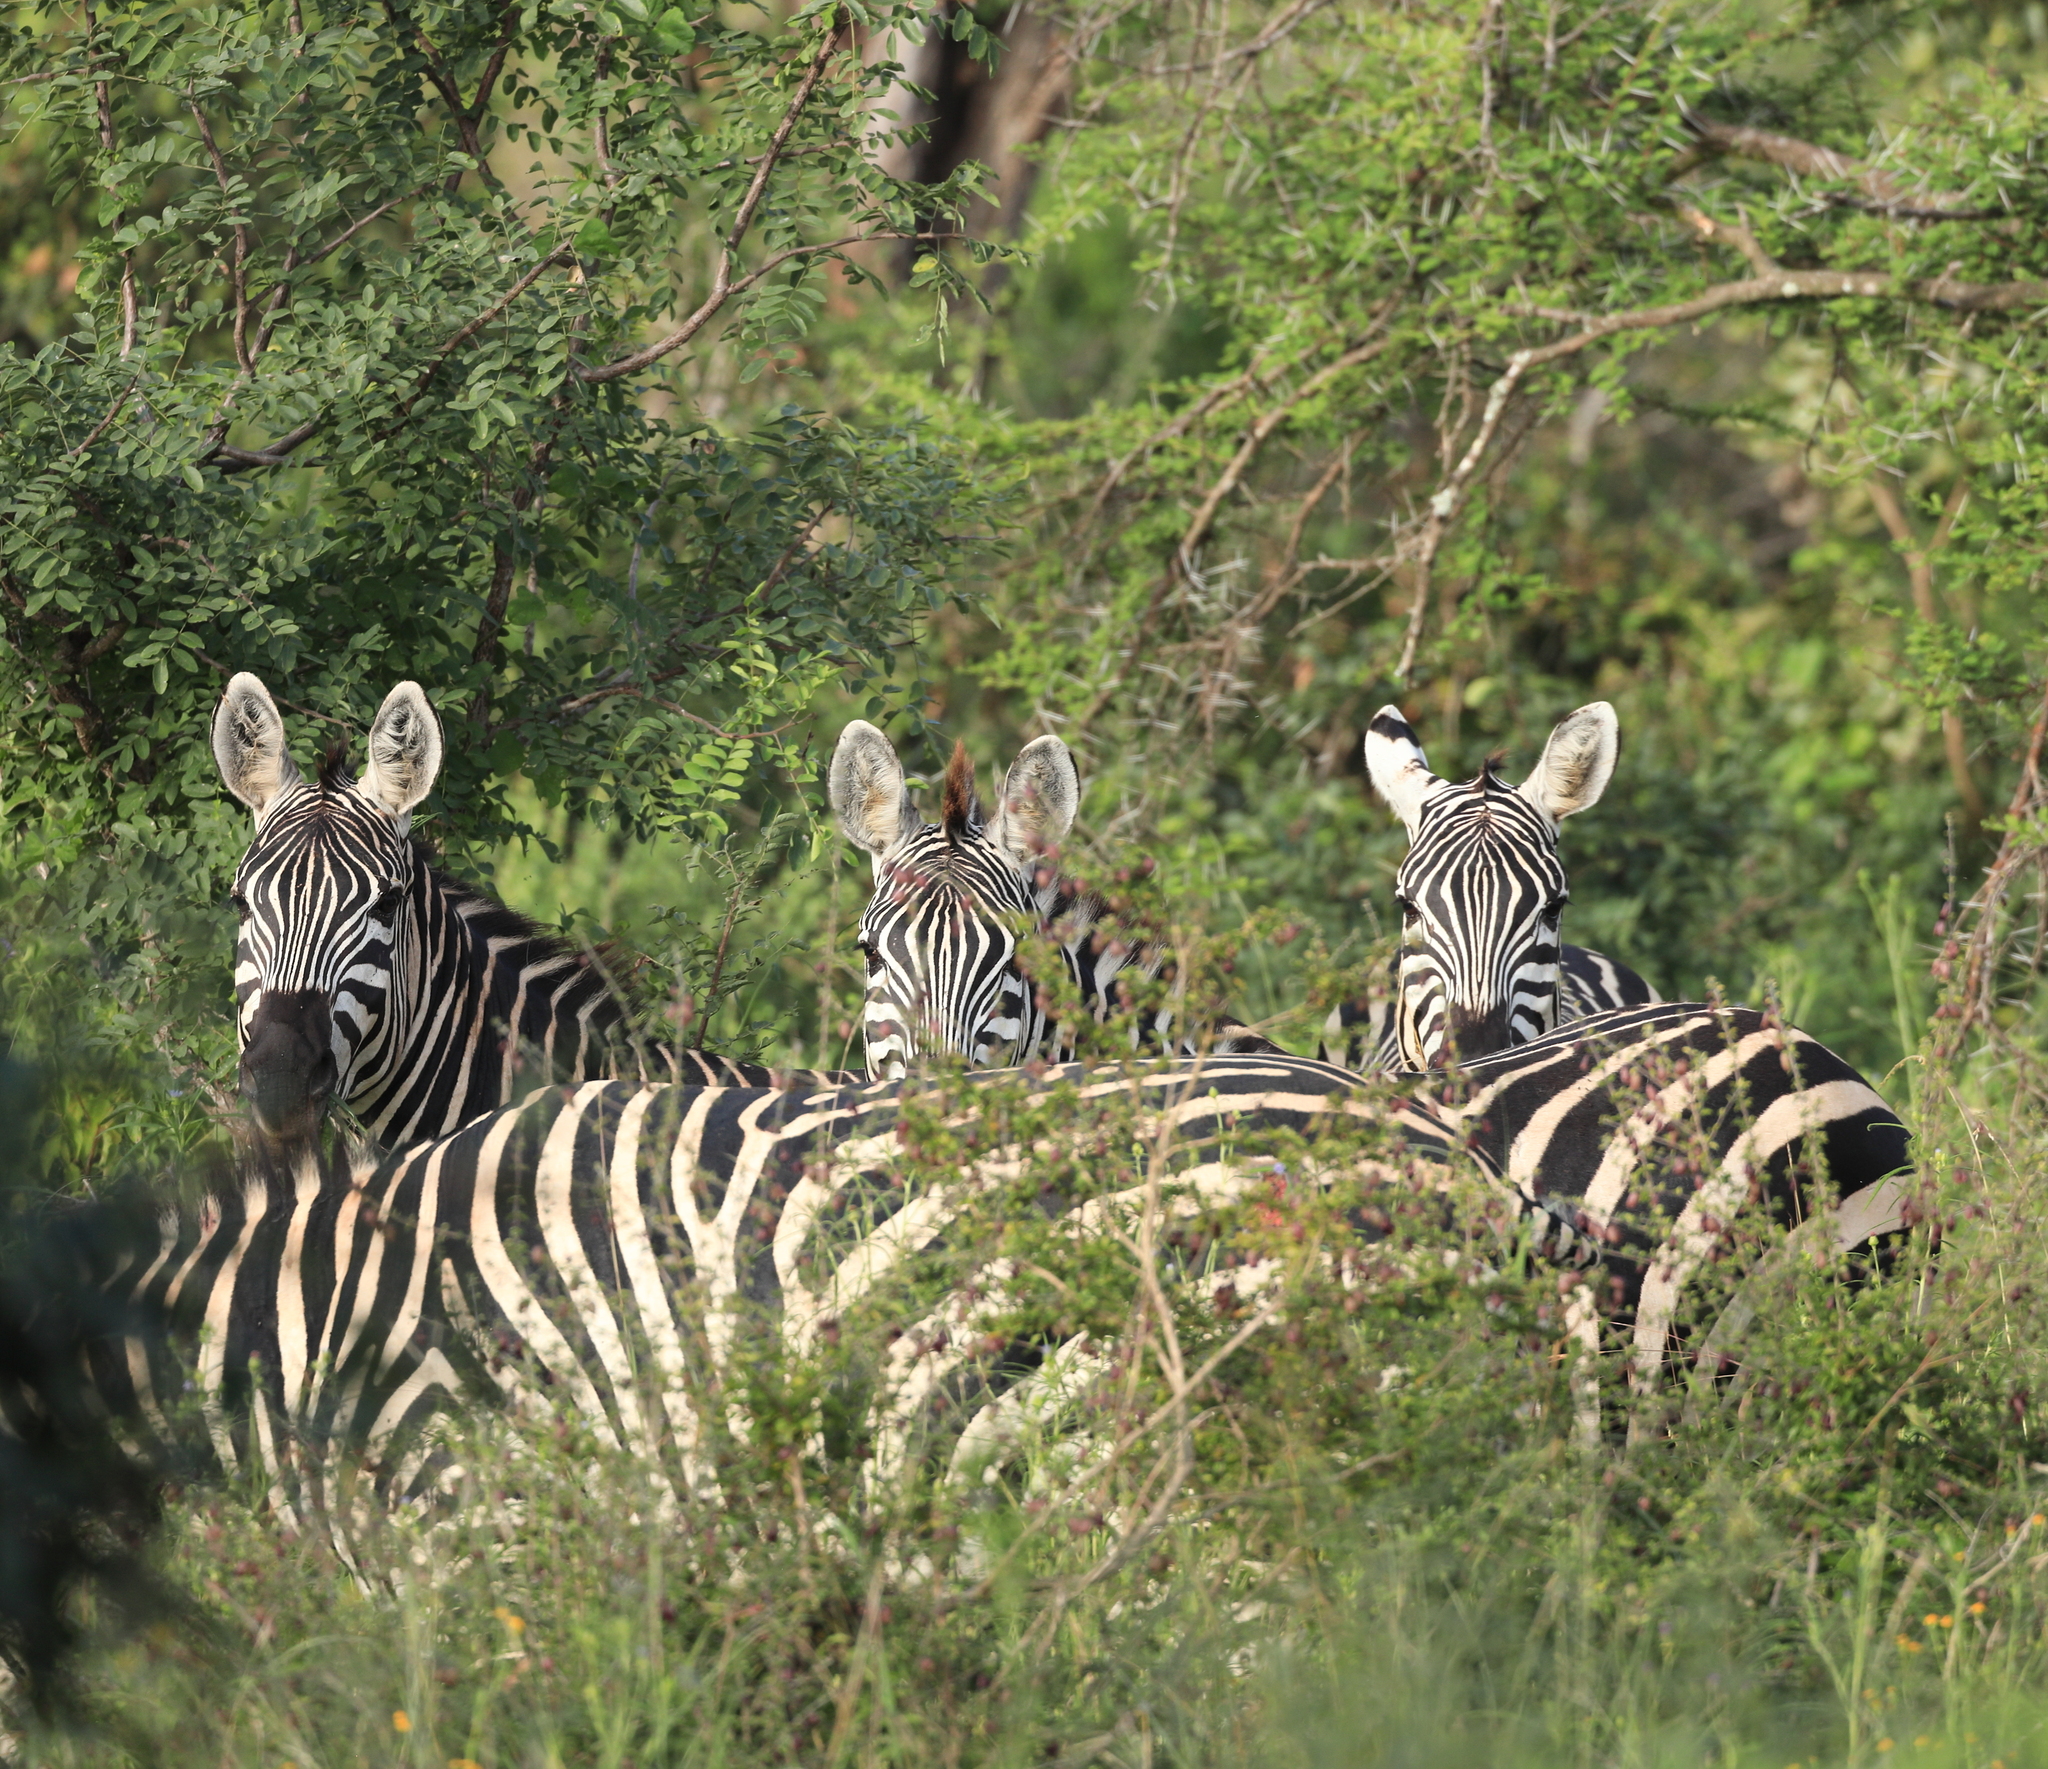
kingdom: Animalia
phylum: Chordata
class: Mammalia
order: Perissodactyla
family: Equidae
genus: Equus
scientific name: Equus quagga
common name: Plains zebra
